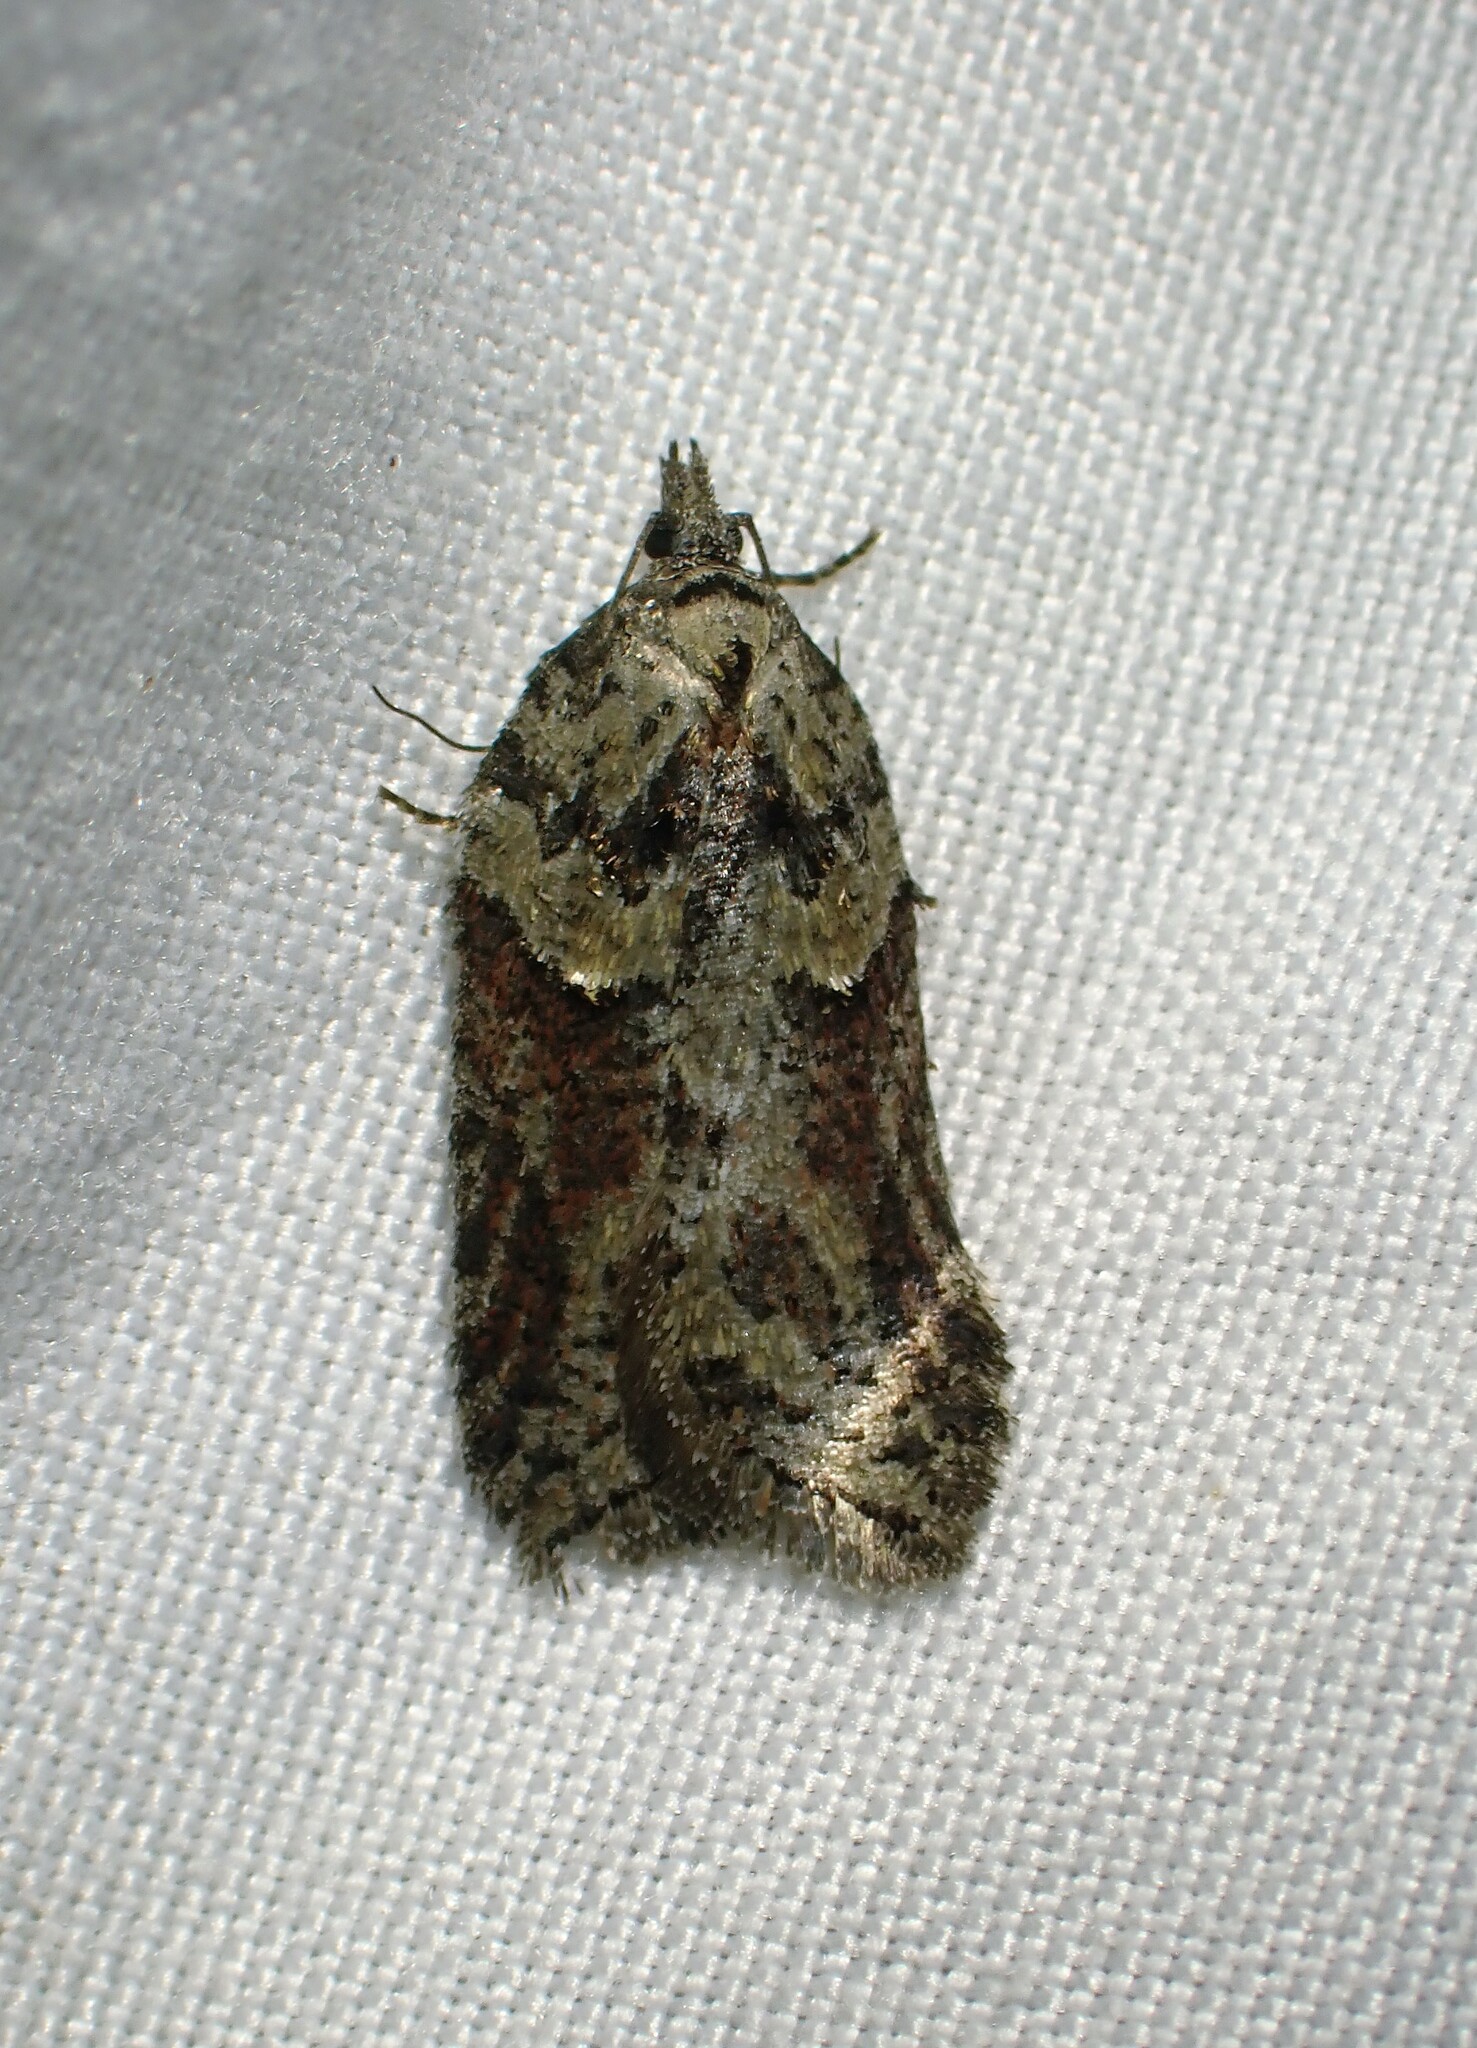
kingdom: Animalia
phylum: Arthropoda
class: Insecta
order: Lepidoptera
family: Tortricidae
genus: Acleris
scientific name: Acleris hastiana
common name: Sallow button
